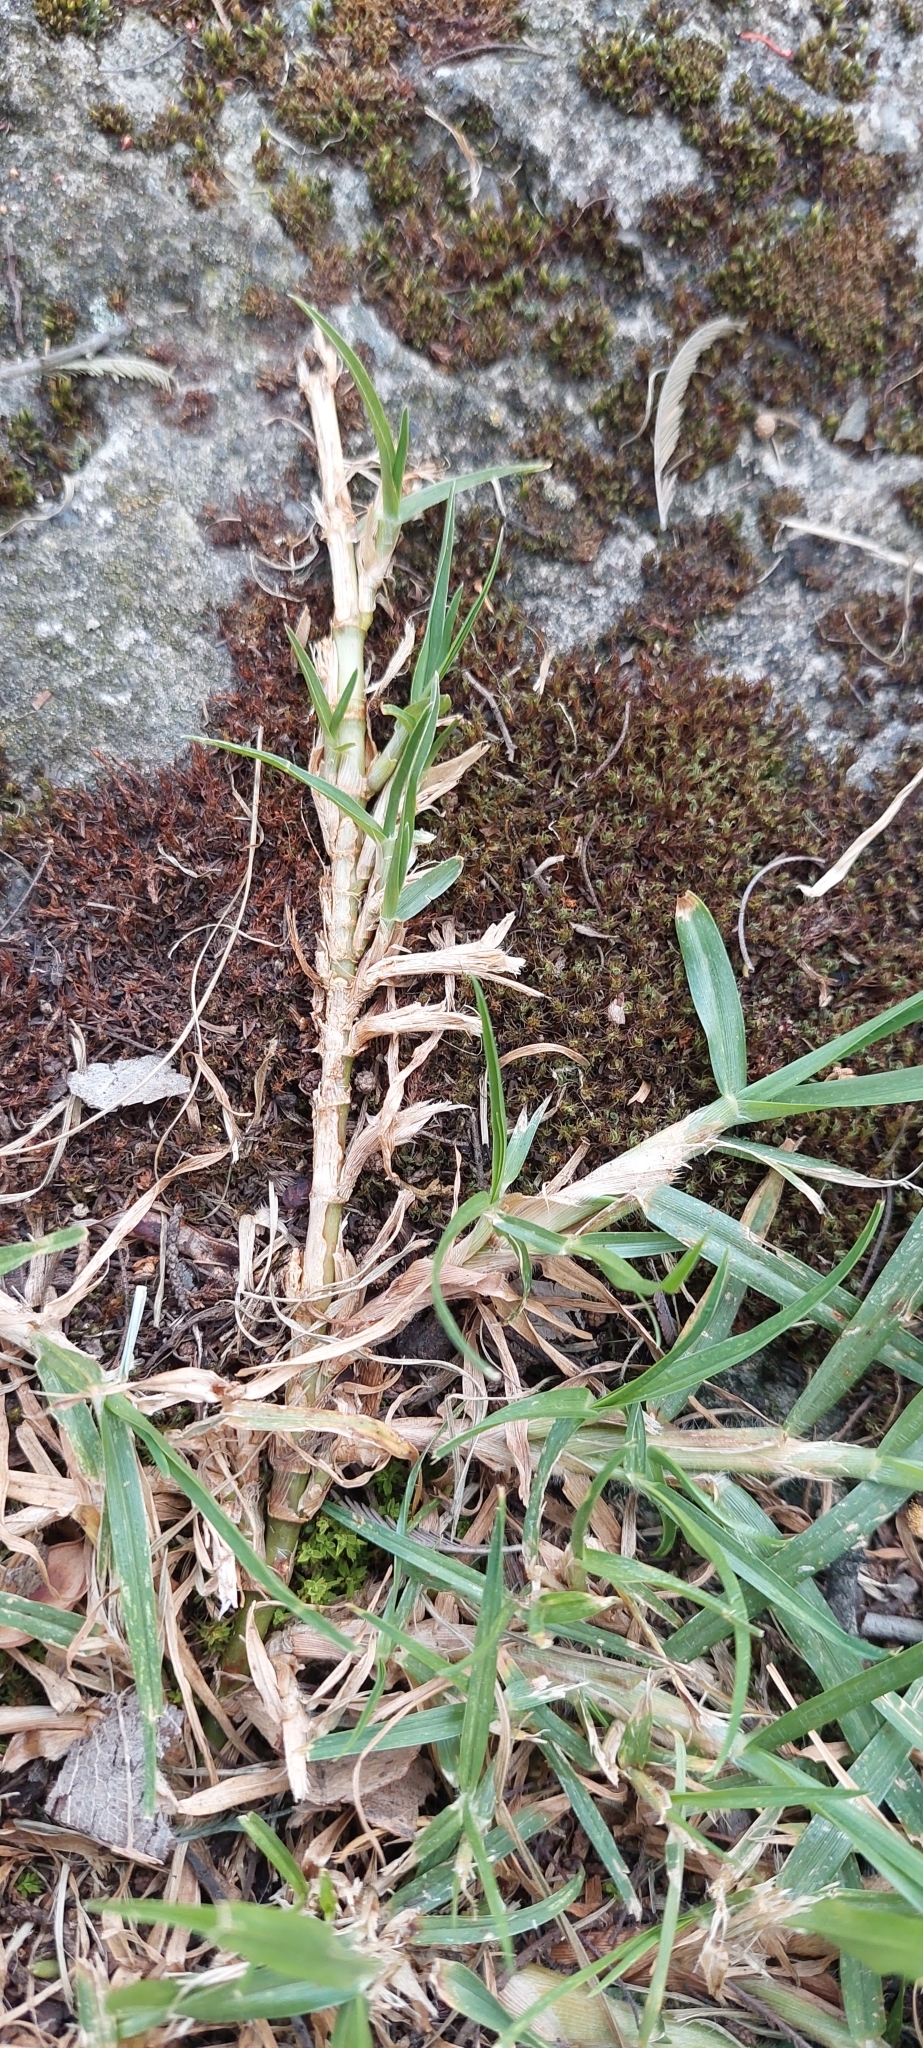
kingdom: Plantae
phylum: Tracheophyta
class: Liliopsida
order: Poales
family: Poaceae
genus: Cenchrus
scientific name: Cenchrus clandestinus
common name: Kikuyugrass
